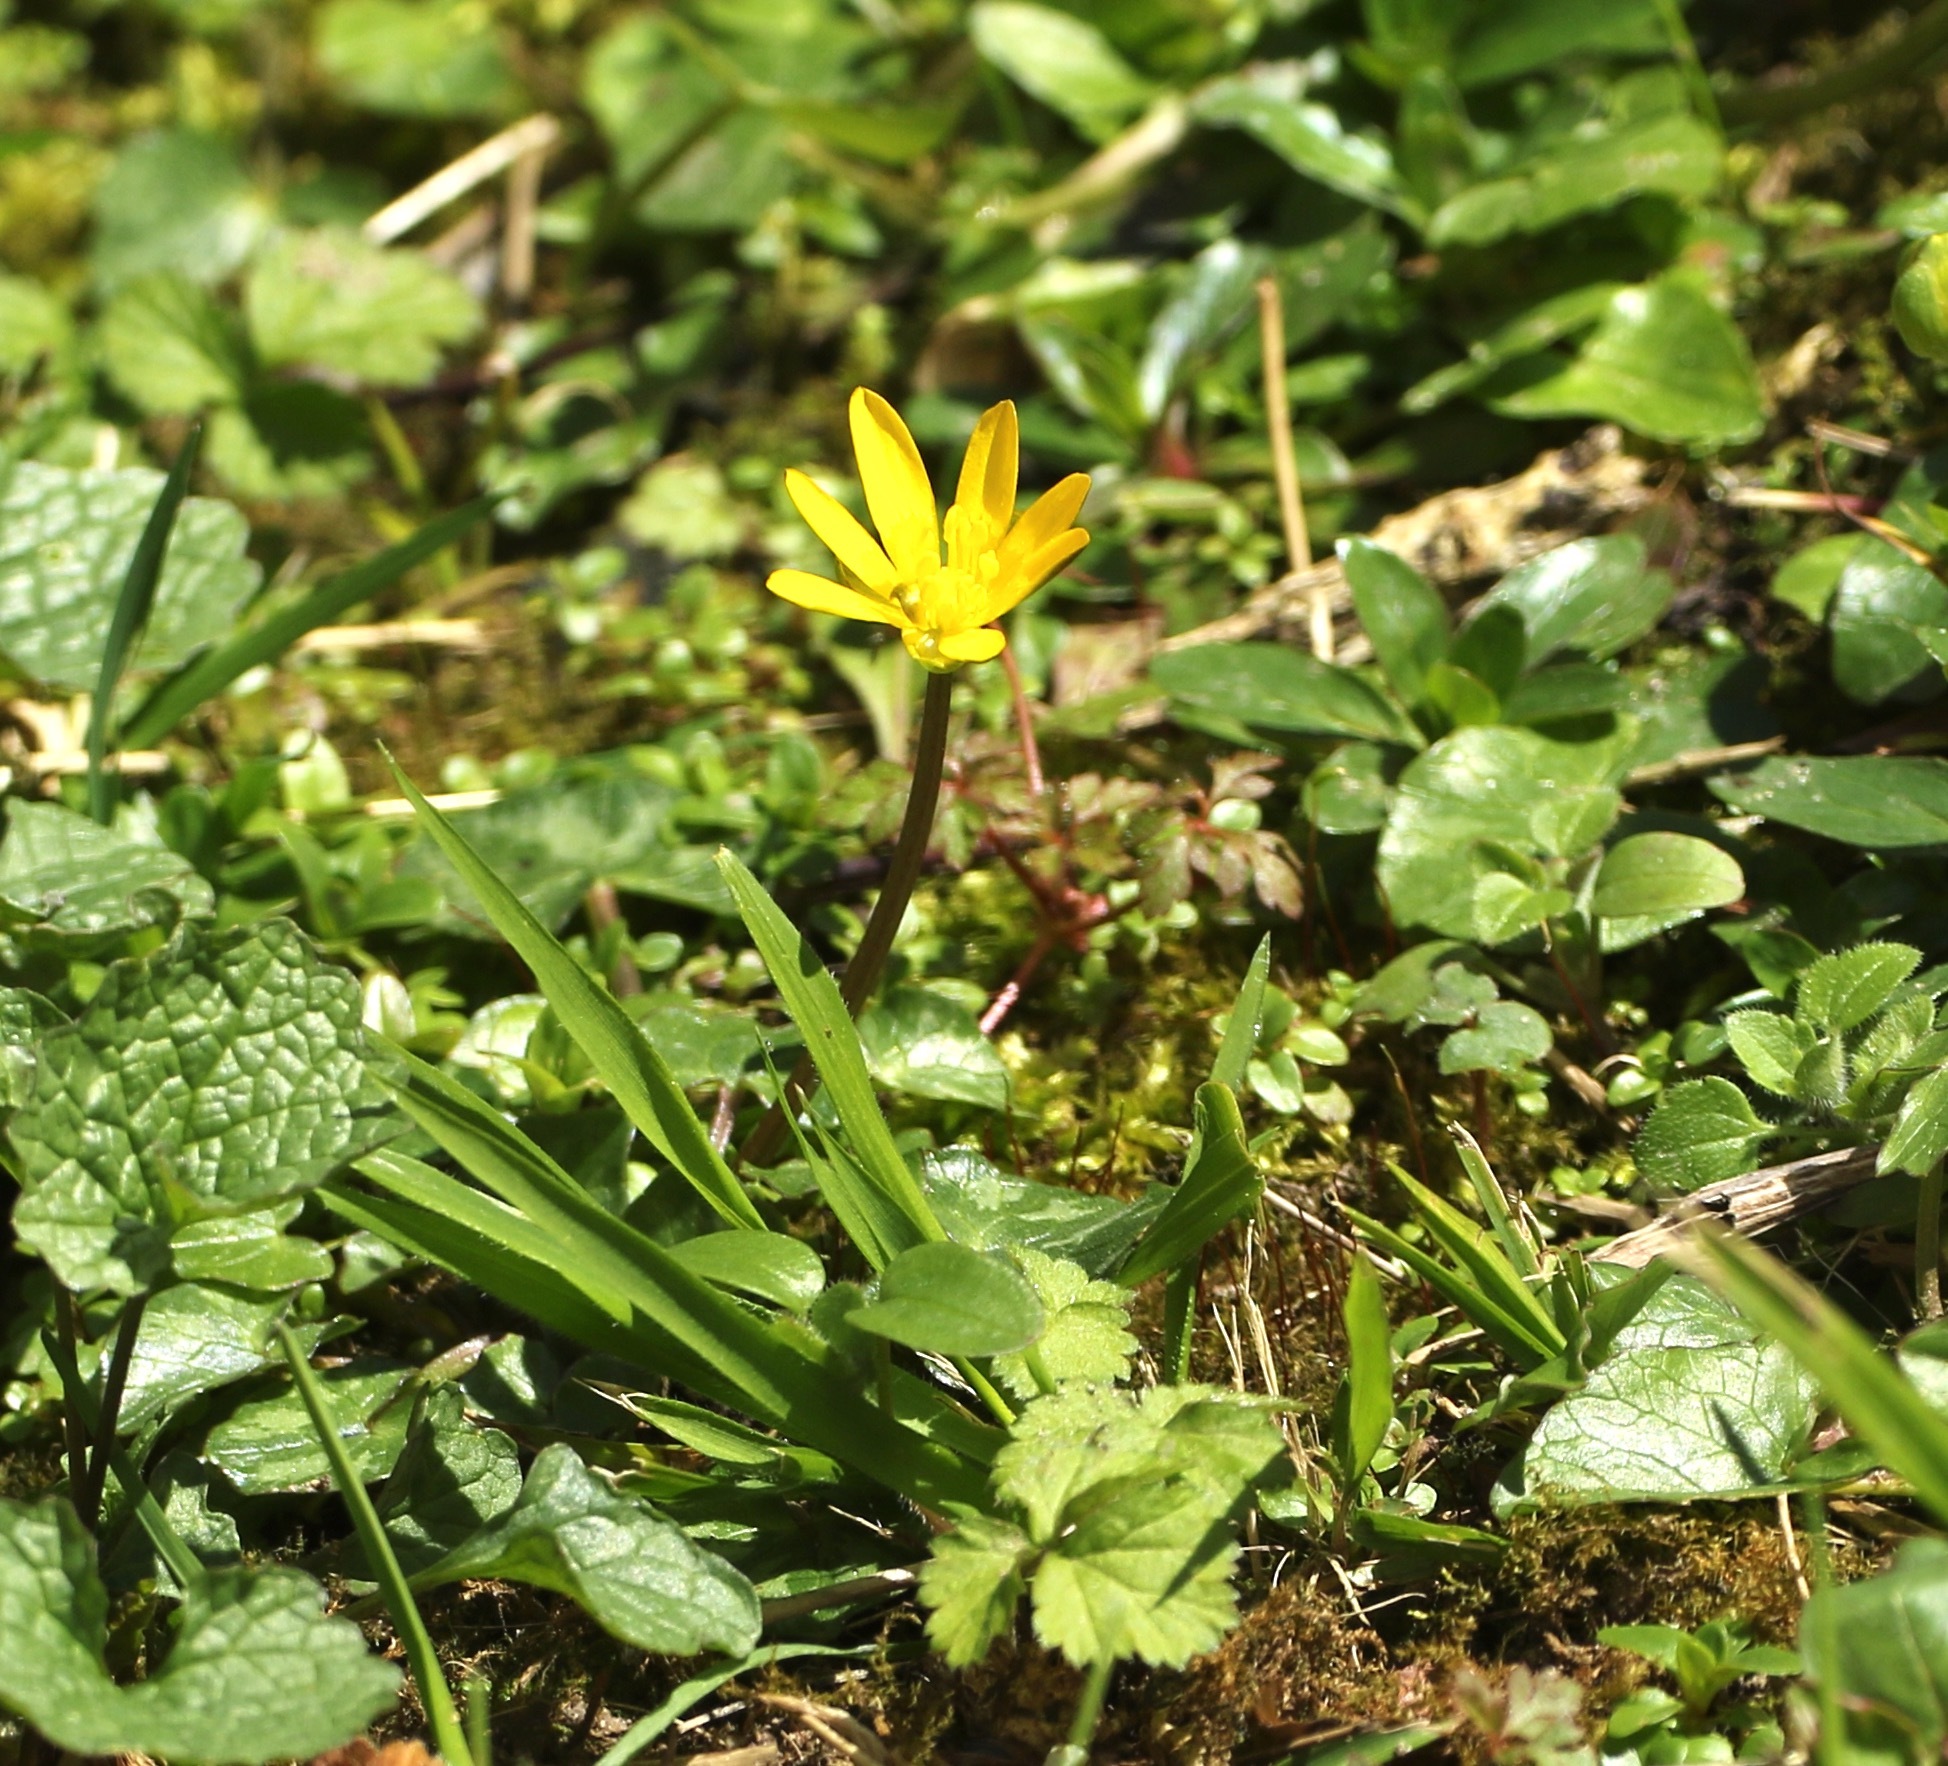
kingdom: Plantae
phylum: Tracheophyta
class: Magnoliopsida
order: Ranunculales
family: Ranunculaceae
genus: Ficaria
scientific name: Ficaria verna
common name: Lesser celandine
